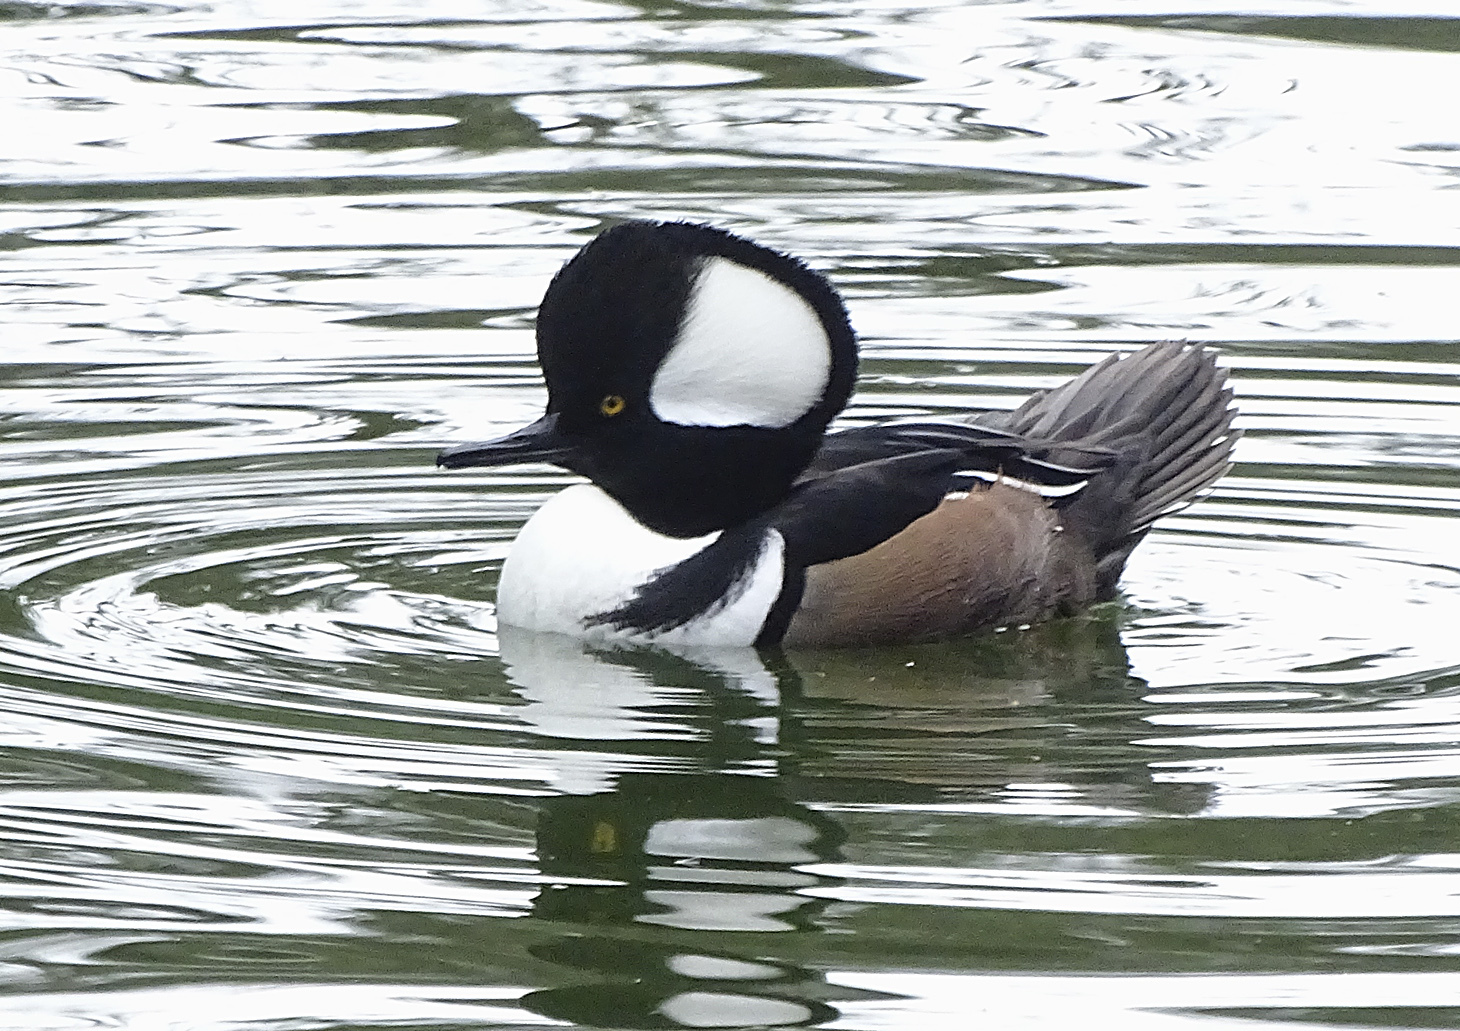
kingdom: Animalia
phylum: Chordata
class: Aves
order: Anseriformes
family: Anatidae
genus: Lophodytes
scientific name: Lophodytes cucullatus
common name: Hooded merganser
